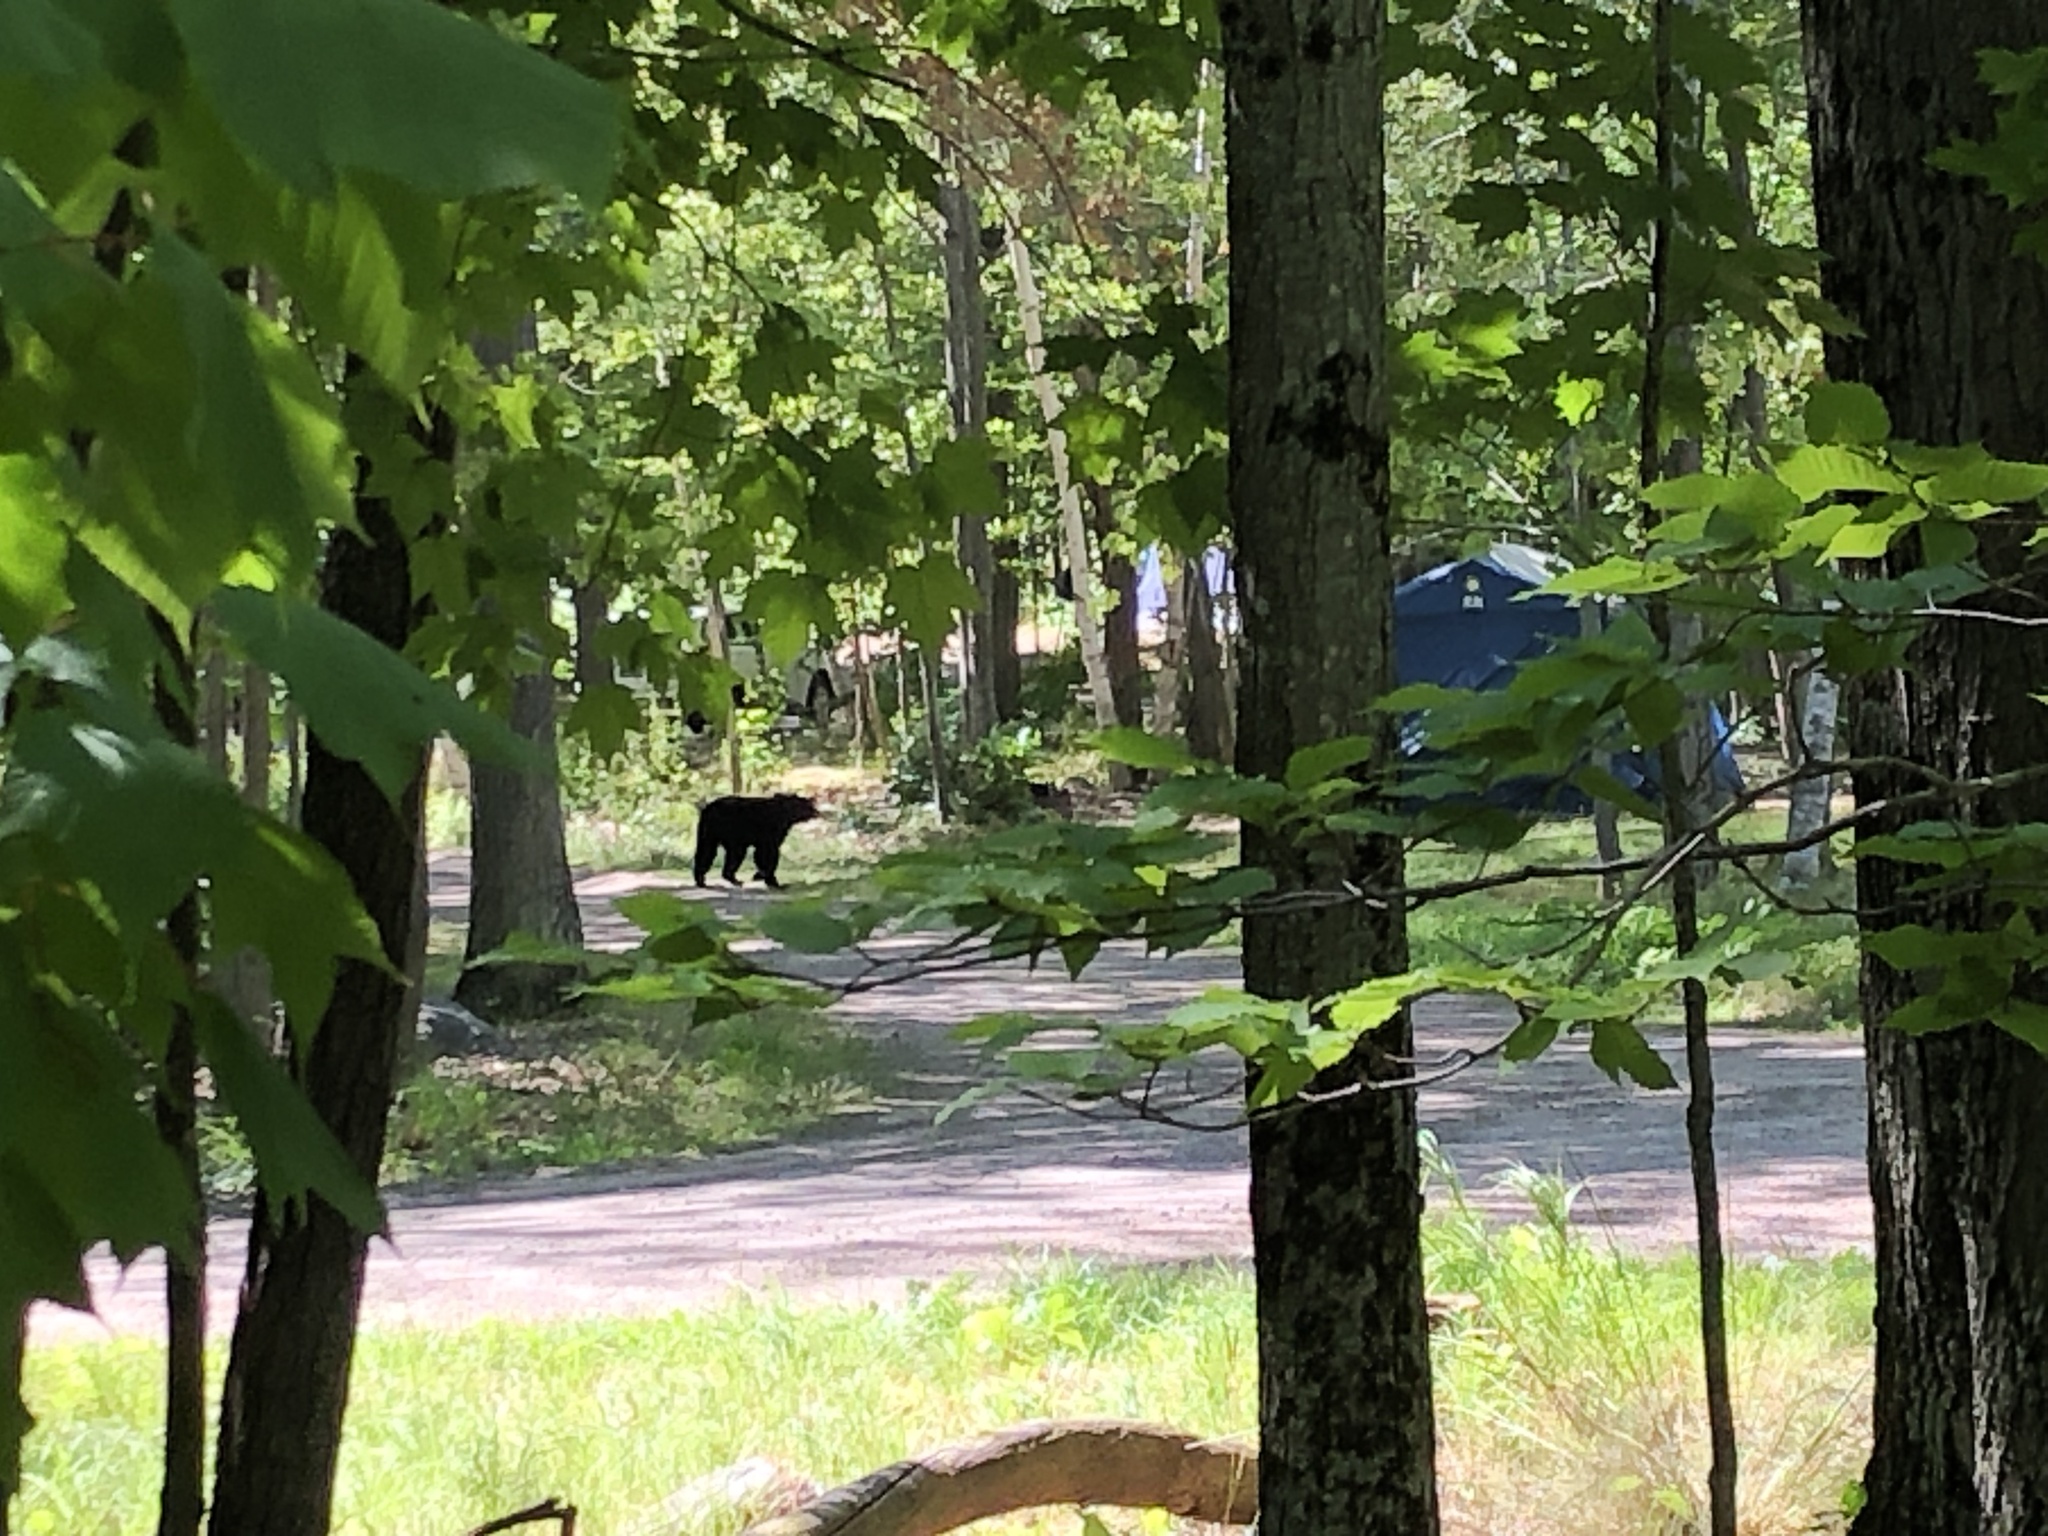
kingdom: Animalia
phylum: Chordata
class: Mammalia
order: Carnivora
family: Ursidae
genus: Ursus
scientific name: Ursus americanus
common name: American black bear
